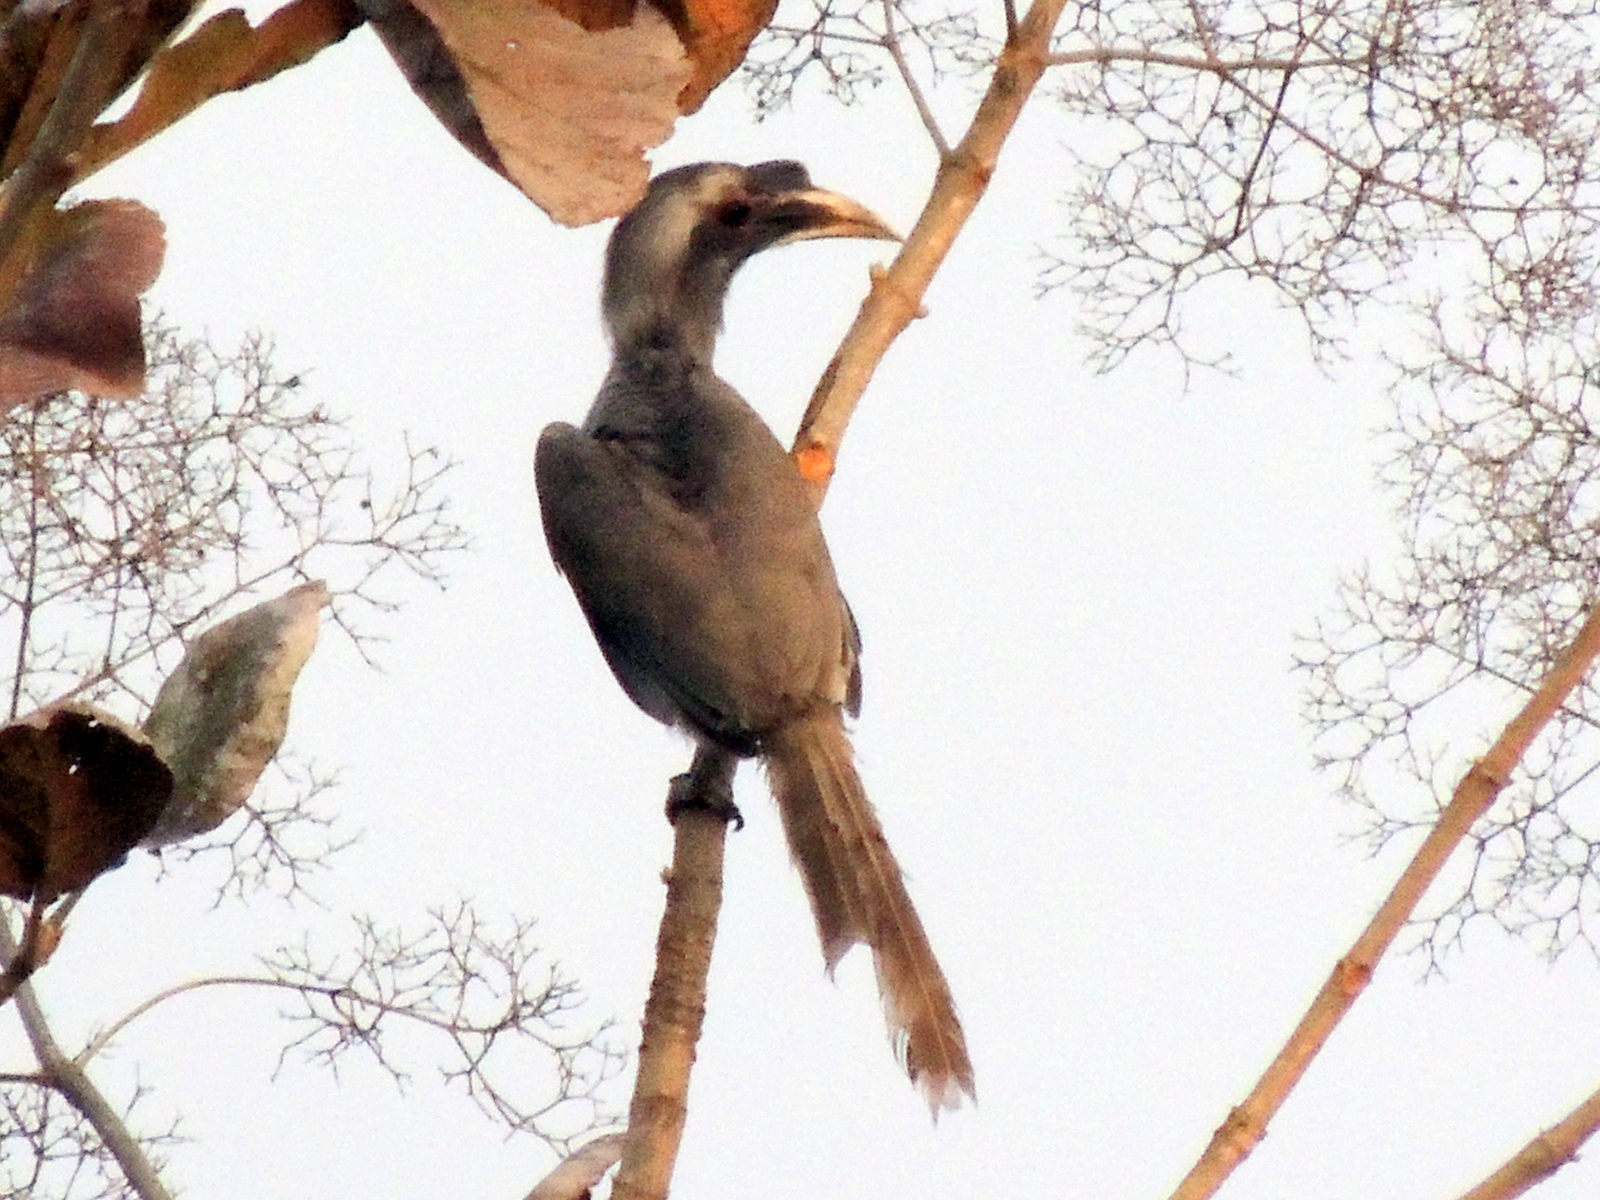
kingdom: Animalia
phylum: Chordata
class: Aves
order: Bucerotiformes
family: Bucerotidae
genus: Ocyceros
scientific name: Ocyceros birostris
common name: Indian grey hornbill
